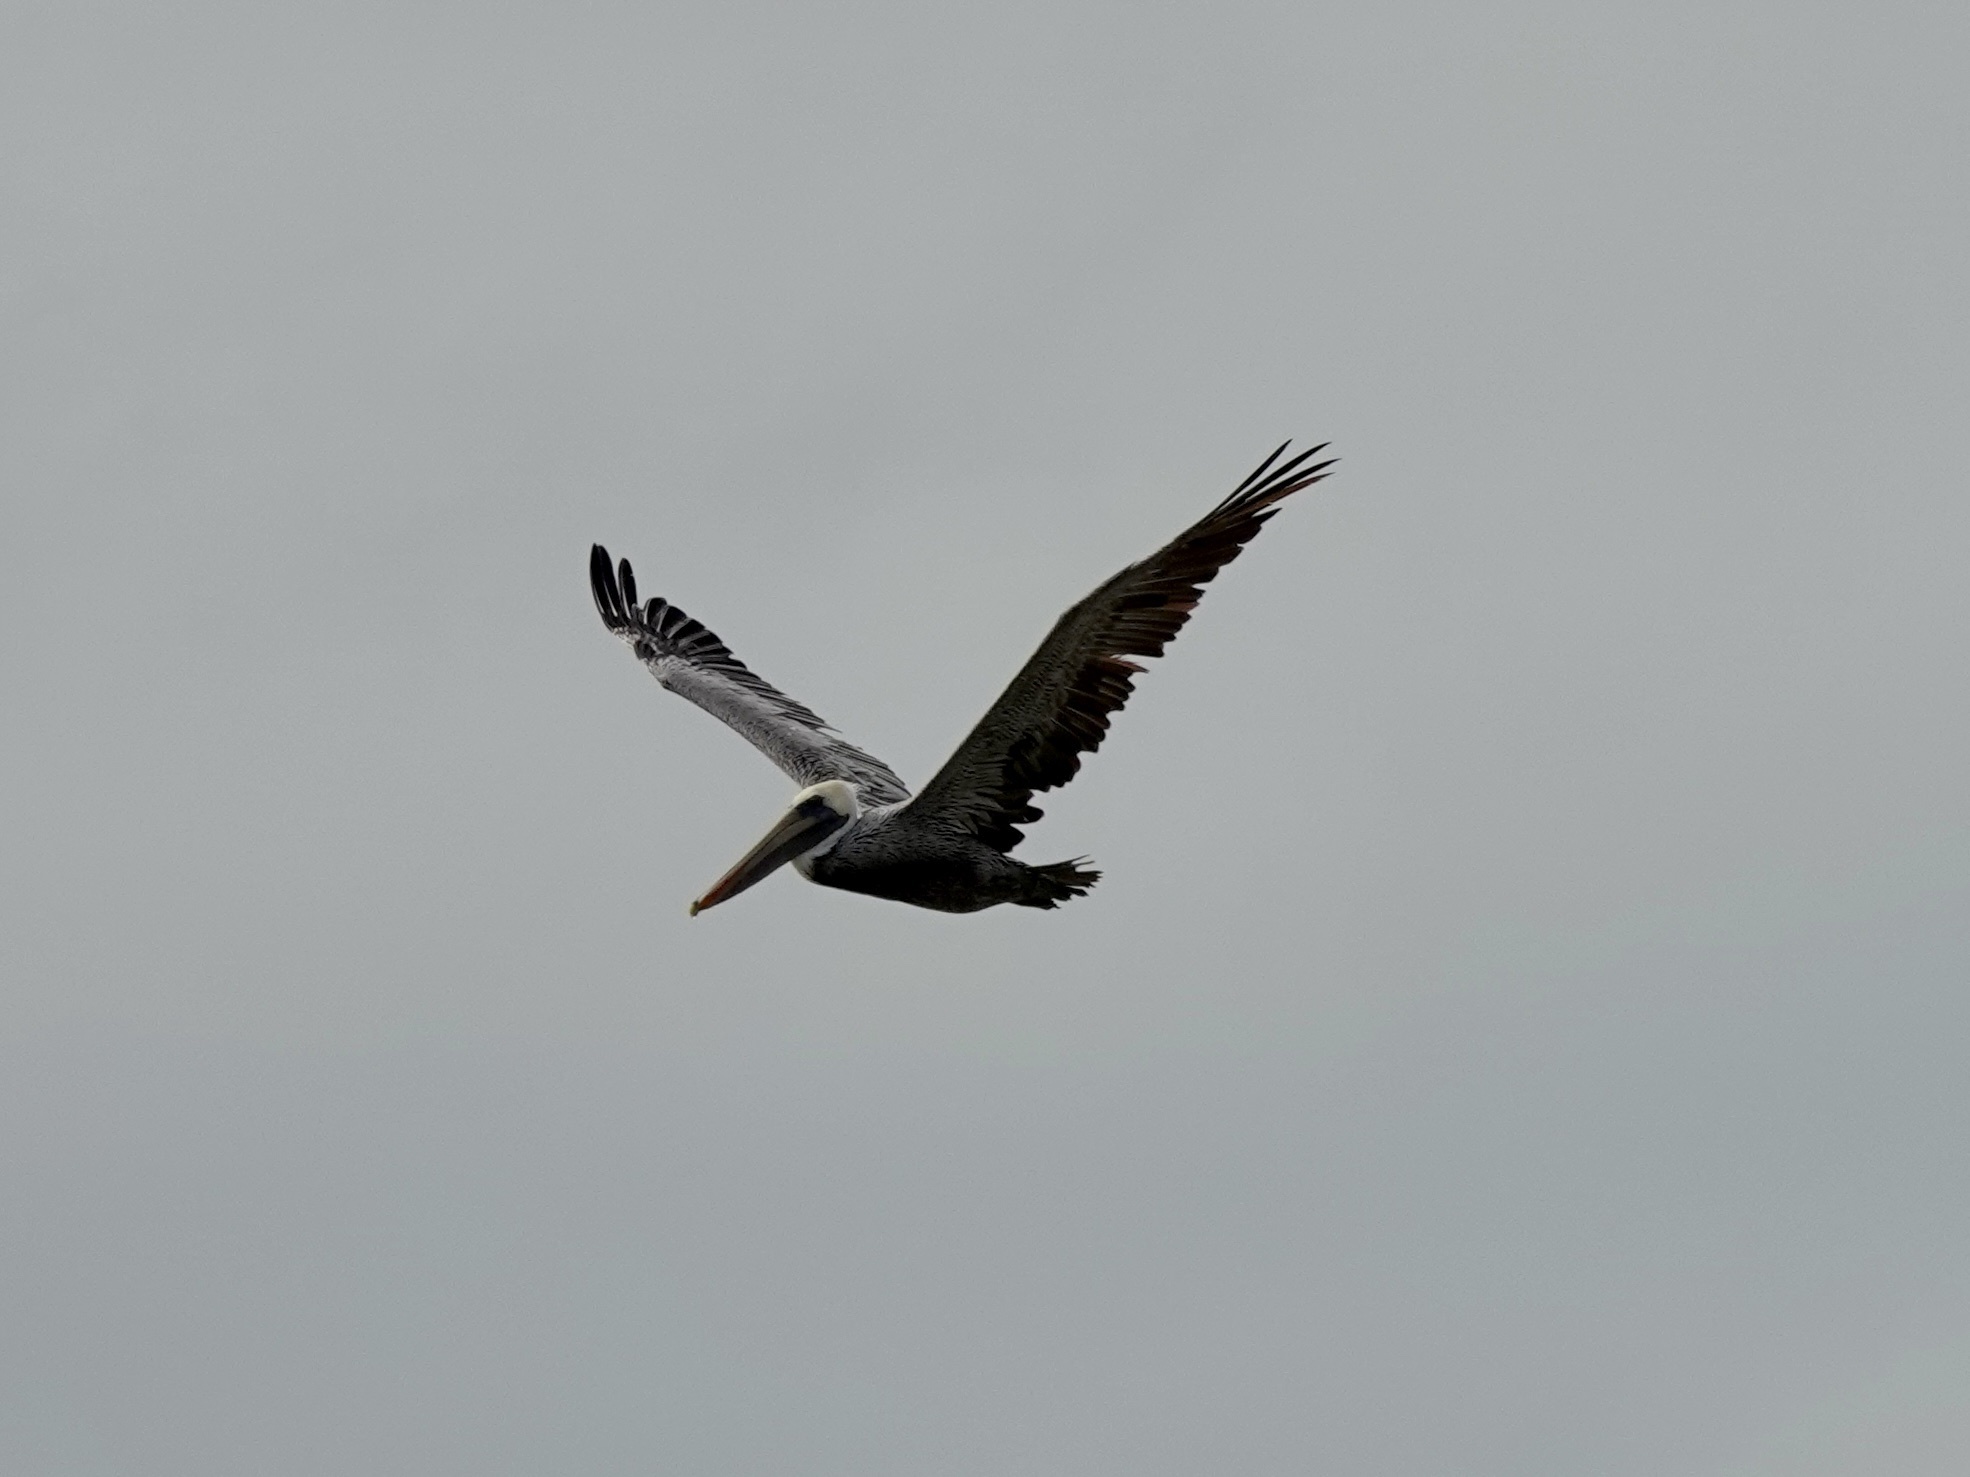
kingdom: Animalia
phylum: Chordata
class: Aves
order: Pelecaniformes
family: Pelecanidae
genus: Pelecanus
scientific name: Pelecanus occidentalis
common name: Brown pelican
